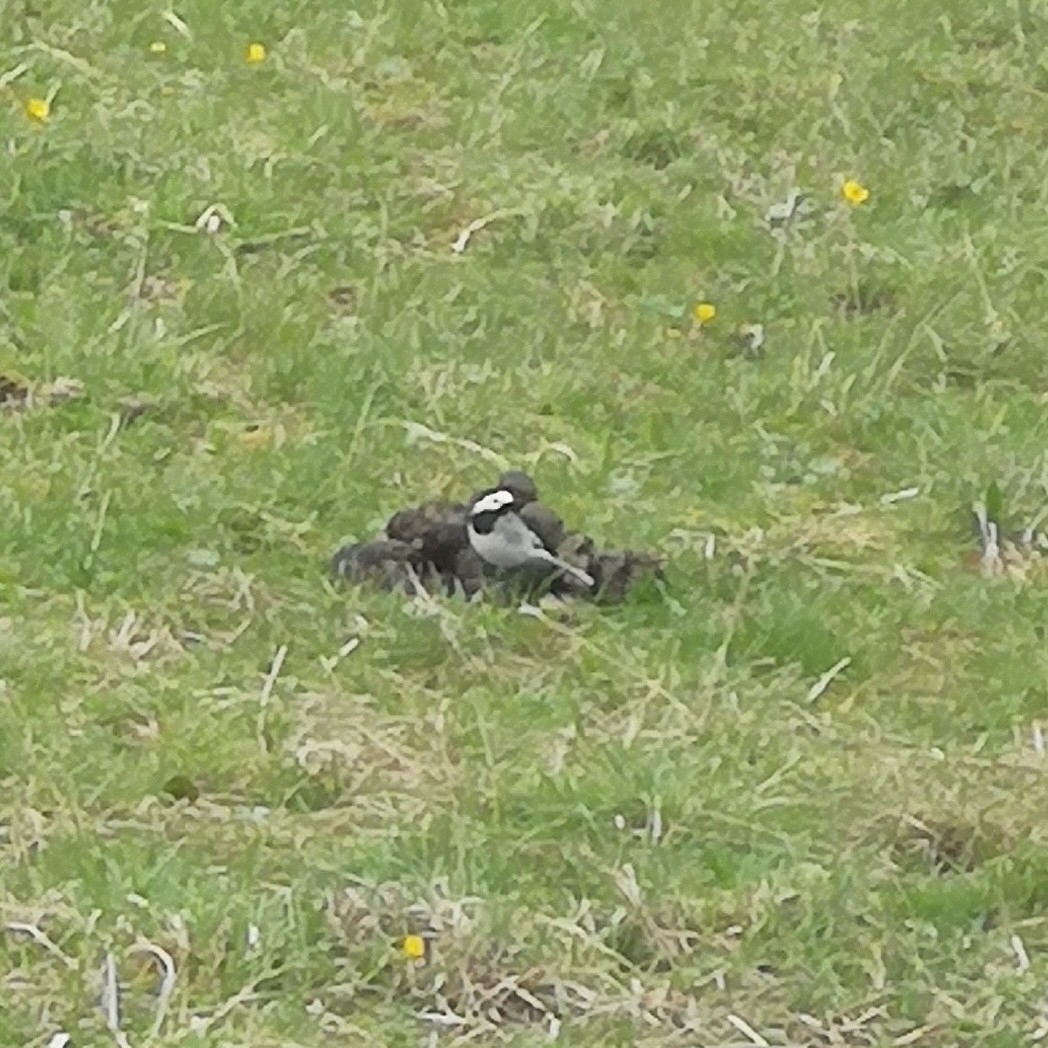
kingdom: Animalia
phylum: Chordata
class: Aves
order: Passeriformes
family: Motacillidae
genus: Motacilla
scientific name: Motacilla alba
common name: White wagtail
